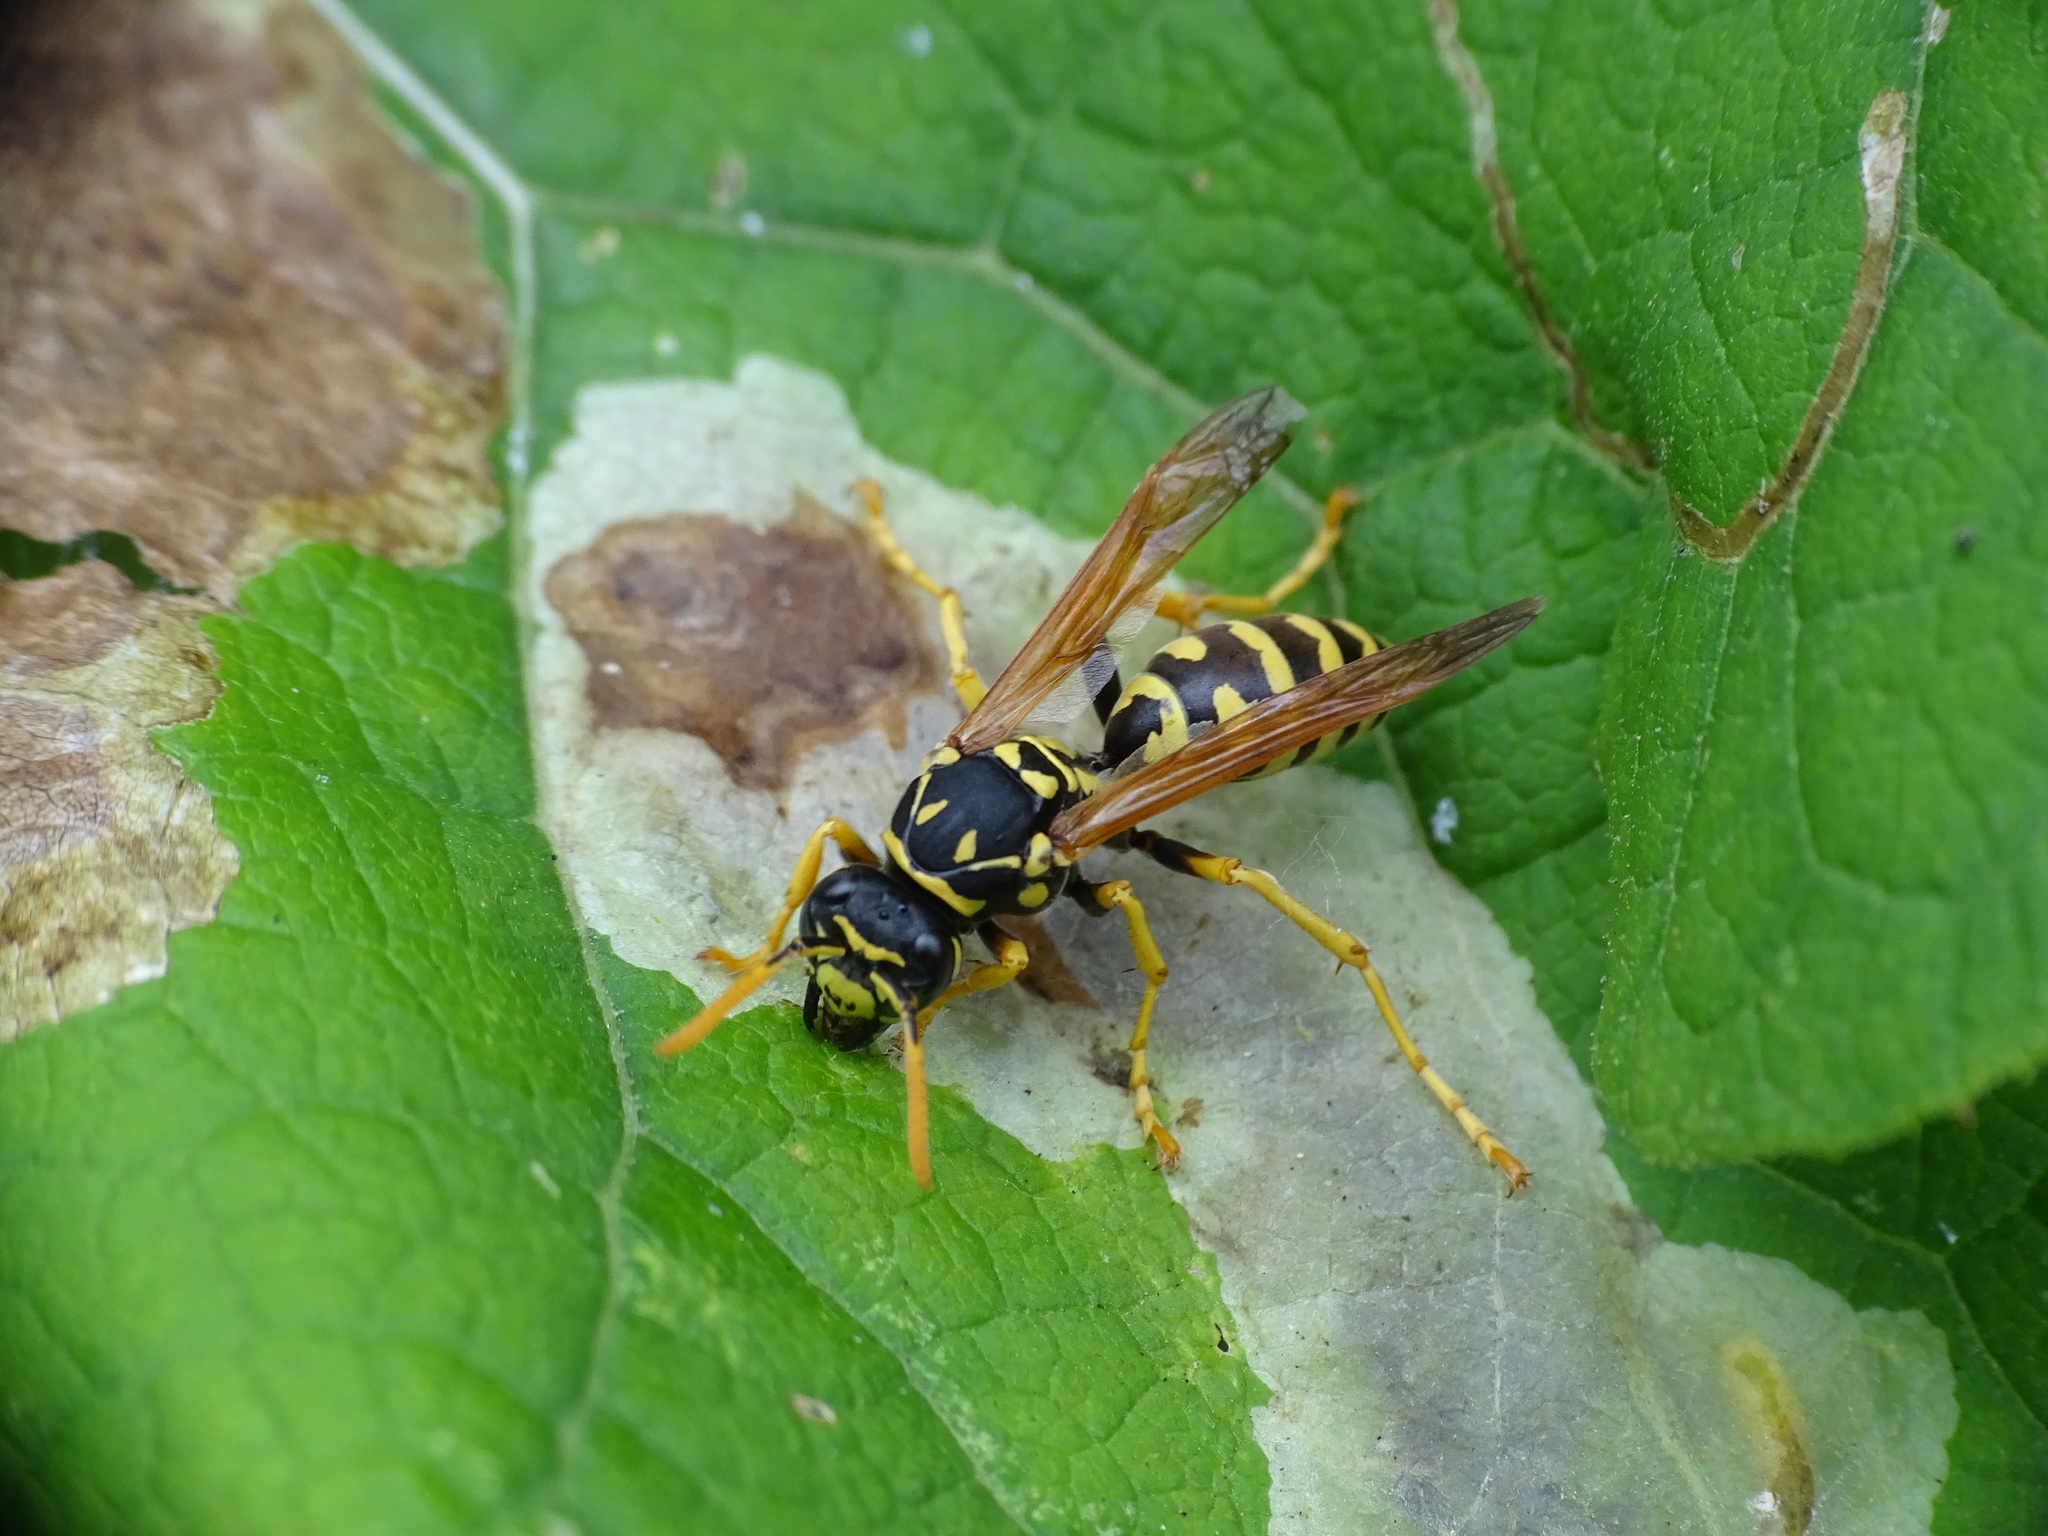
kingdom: Animalia
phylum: Arthropoda
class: Insecta
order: Hymenoptera
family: Eumenidae
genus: Polistes
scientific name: Polistes dominula
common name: Paper wasp
